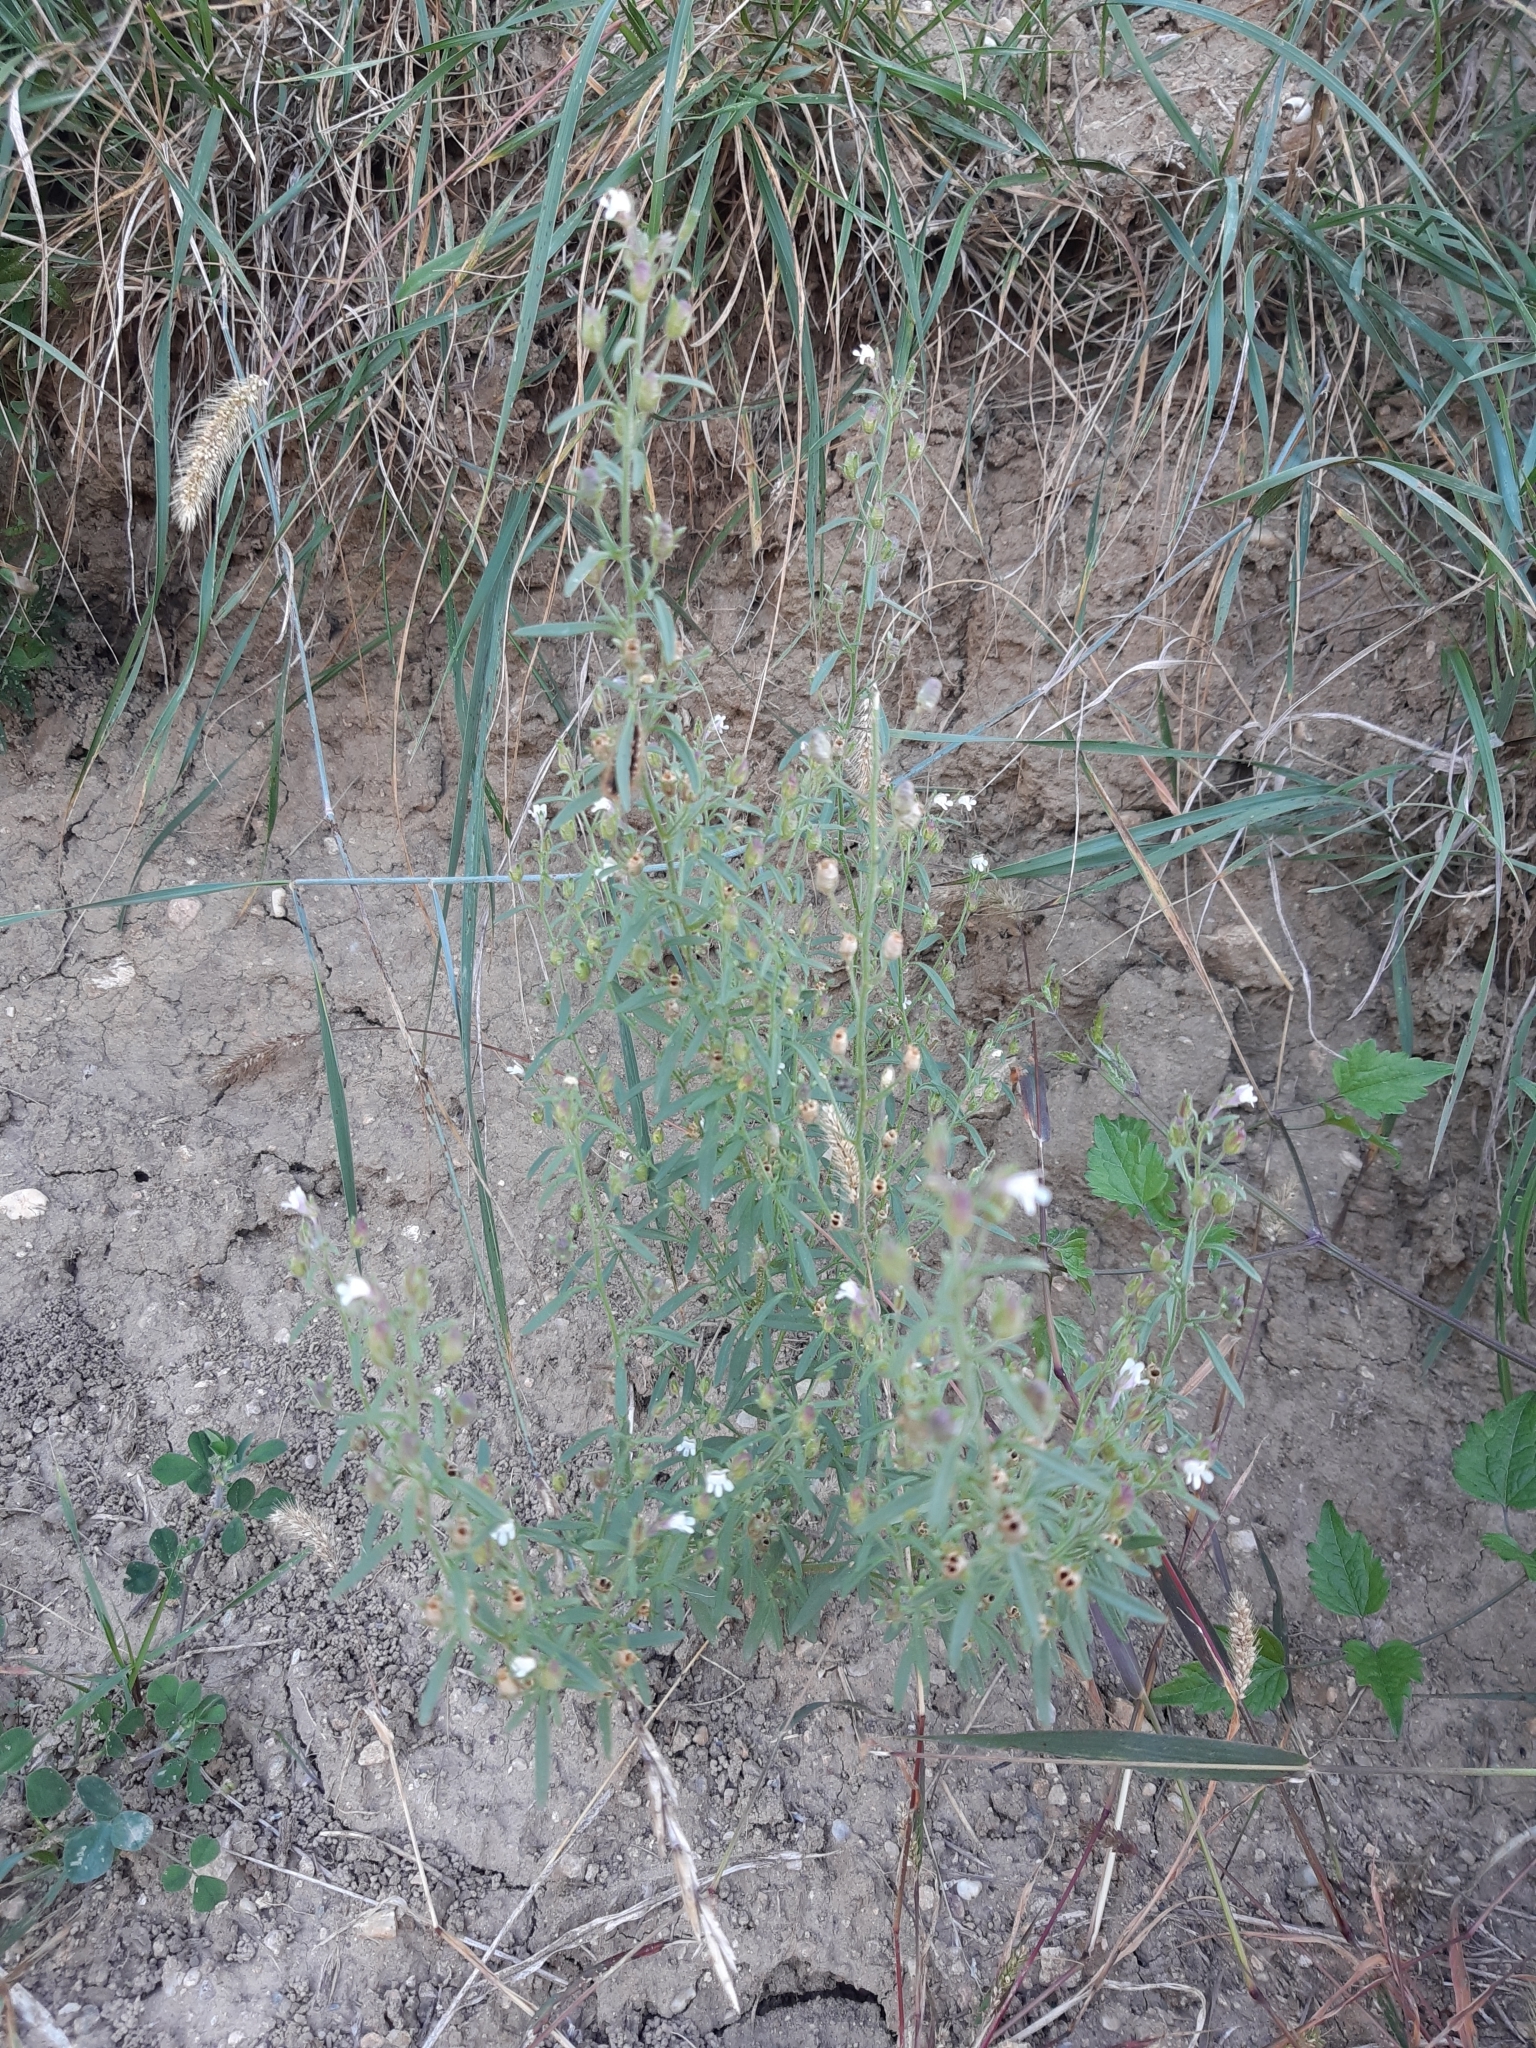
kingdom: Plantae
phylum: Tracheophyta
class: Magnoliopsida
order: Lamiales
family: Plantaginaceae
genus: Chaenorhinum
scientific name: Chaenorhinum minus
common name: Dwarf snapdragon
